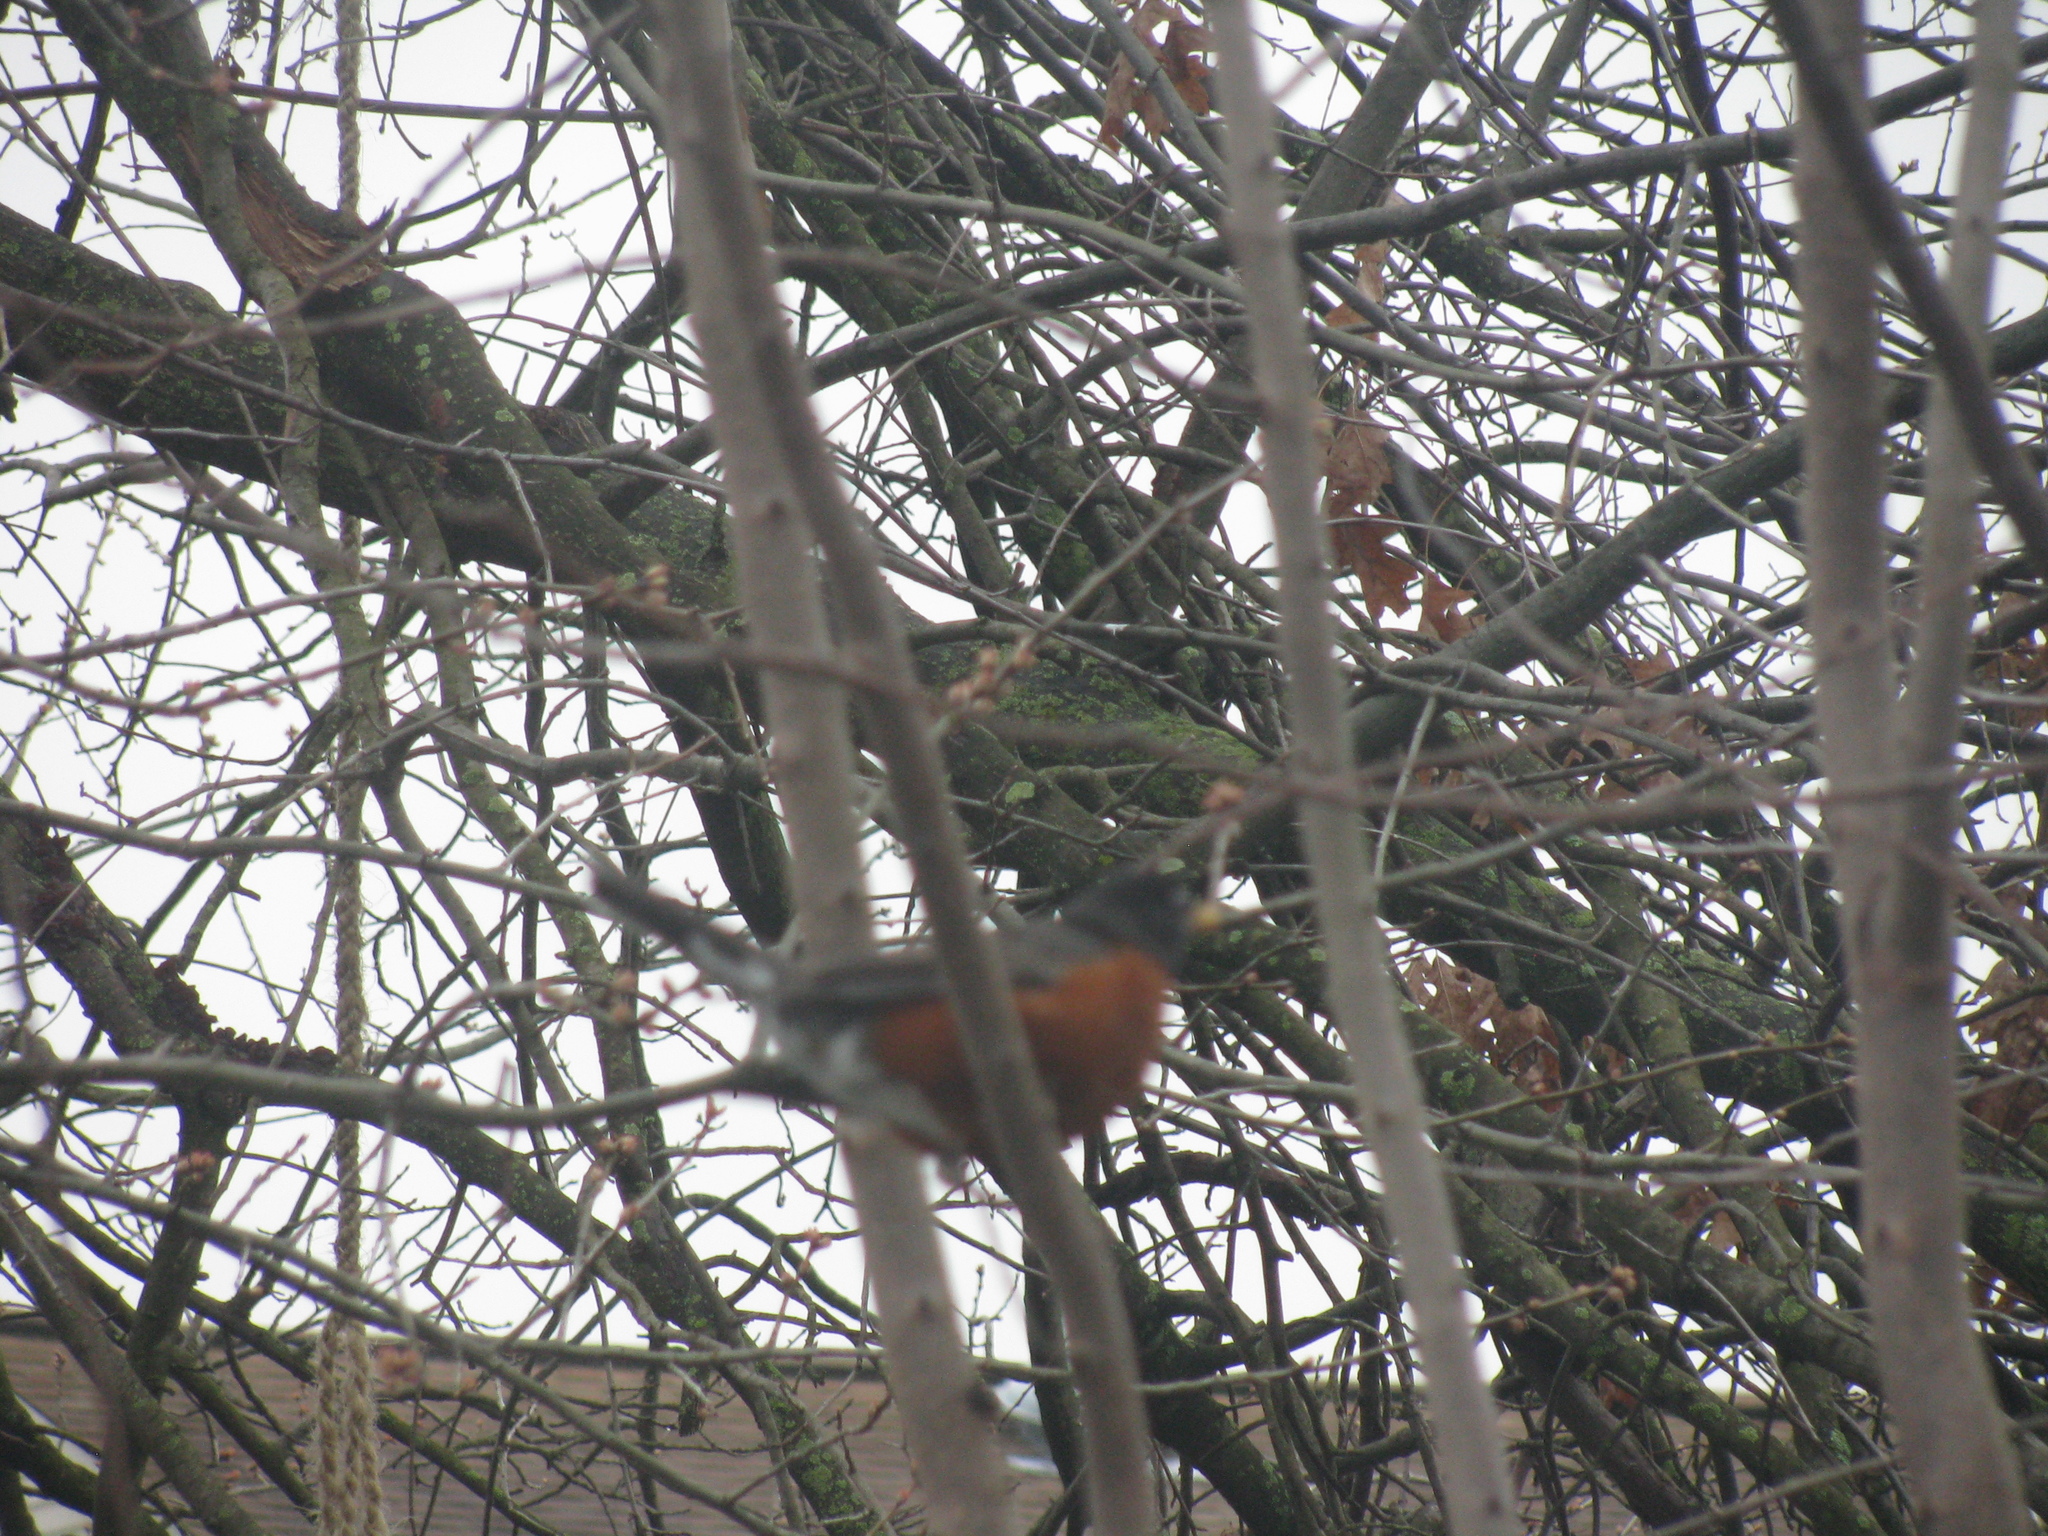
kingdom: Animalia
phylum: Chordata
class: Aves
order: Passeriformes
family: Turdidae
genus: Turdus
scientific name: Turdus migratorius
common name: American robin
